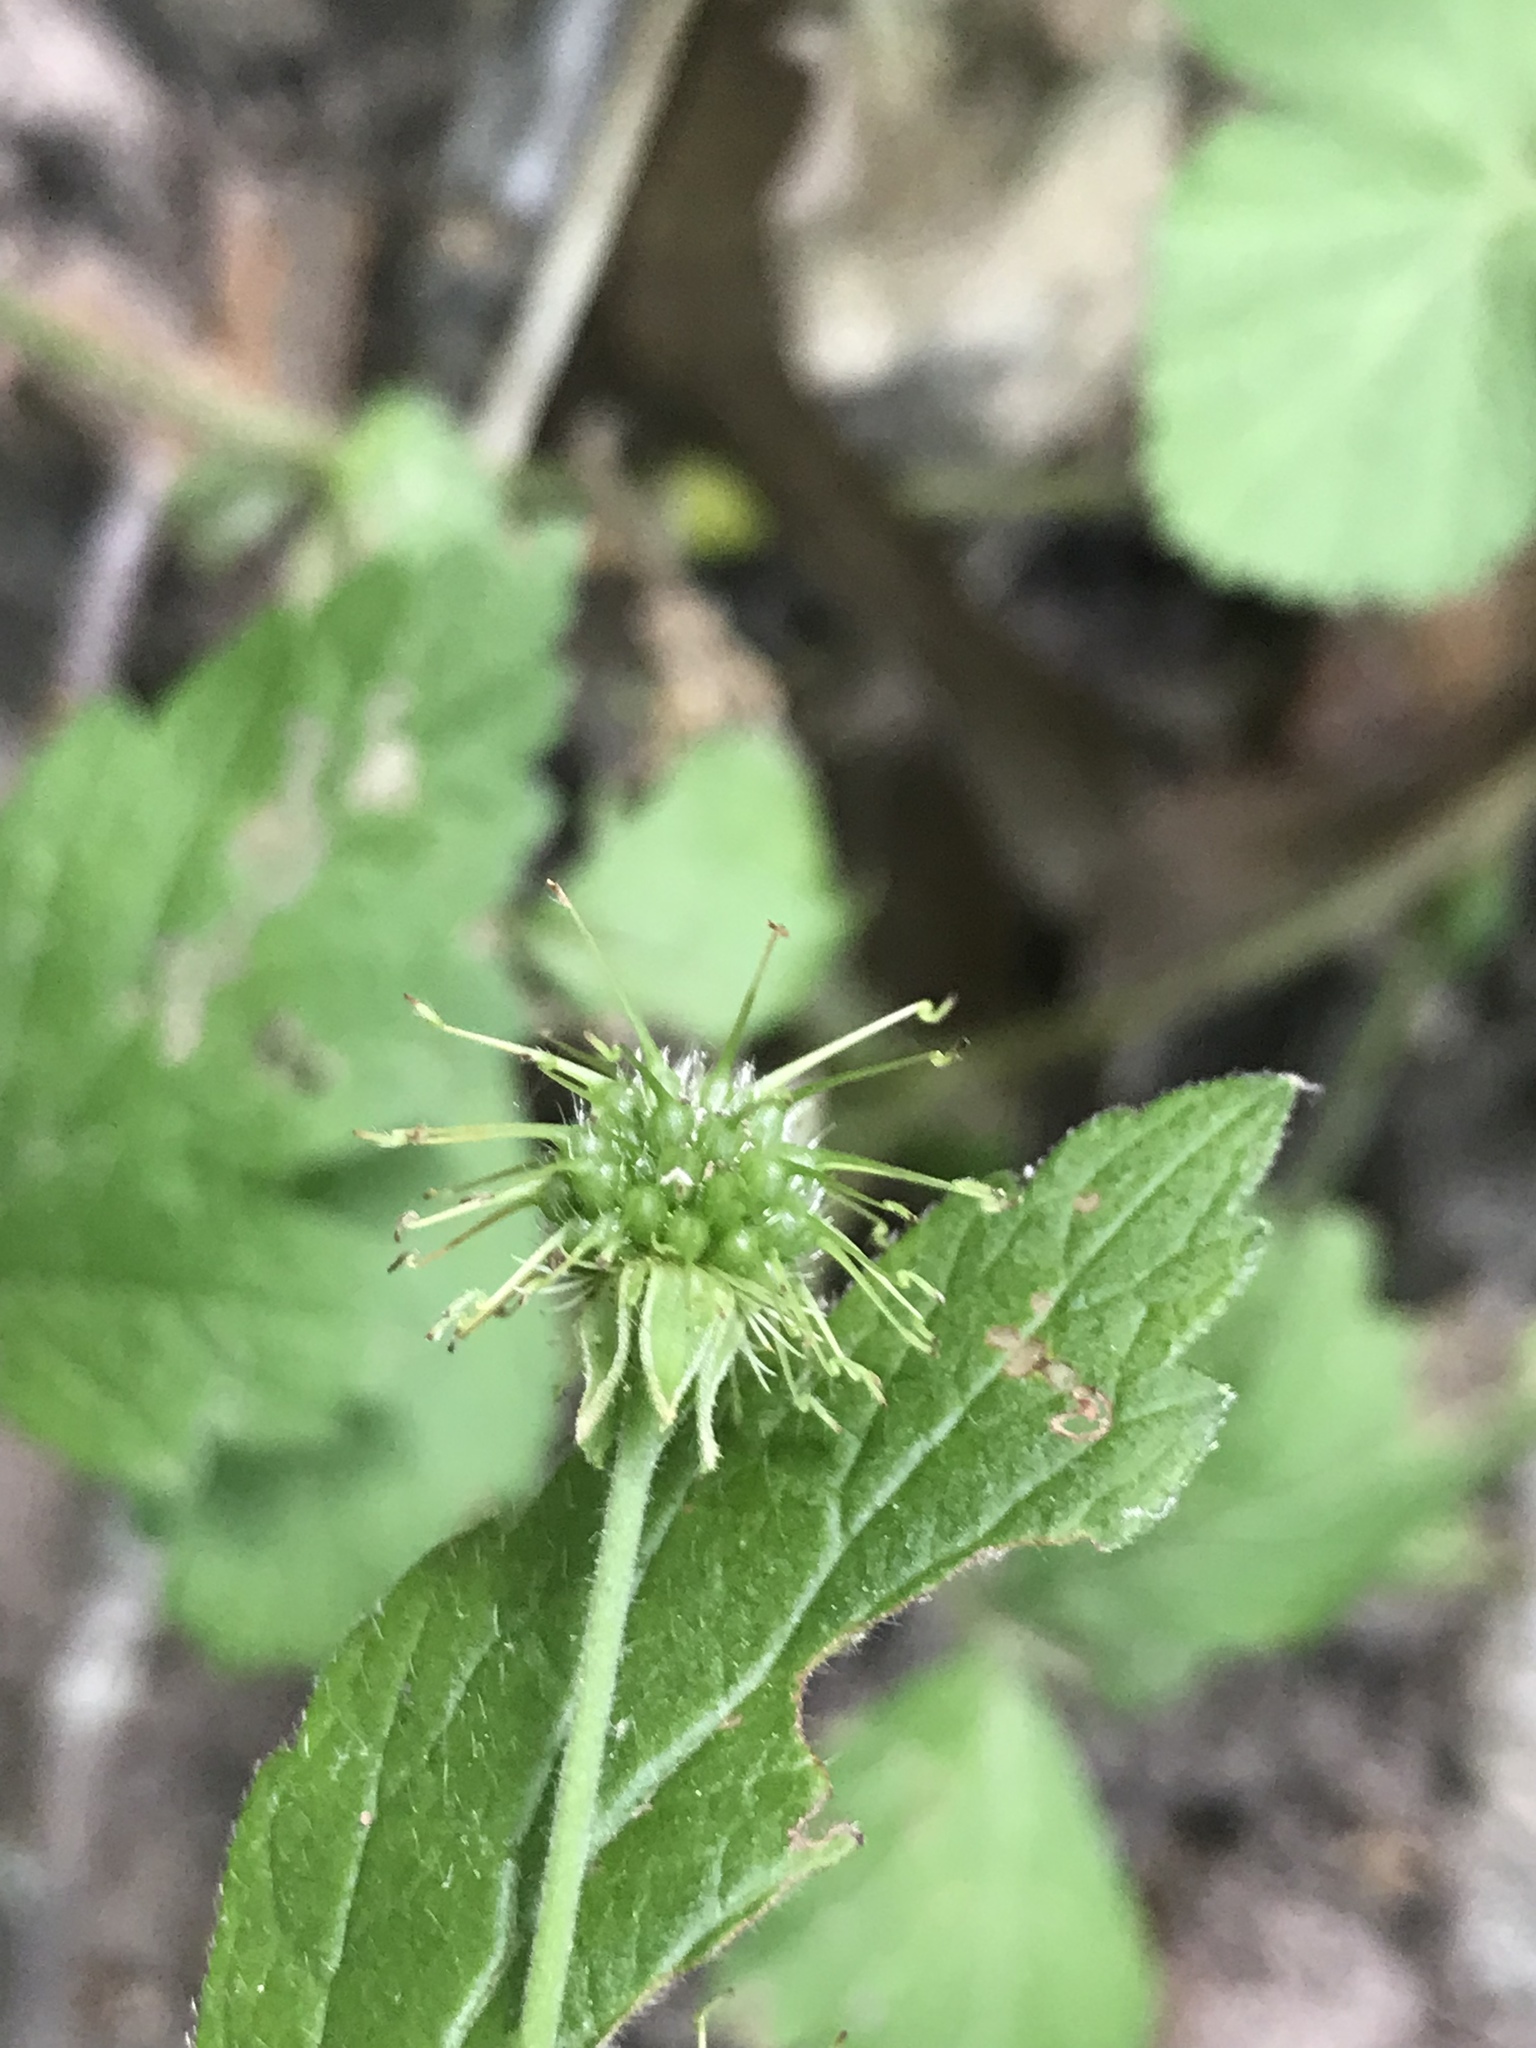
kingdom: Plantae
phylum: Tracheophyta
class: Magnoliopsida
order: Rosales
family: Rosaceae
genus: Geum
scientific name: Geum canadense
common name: White avens
